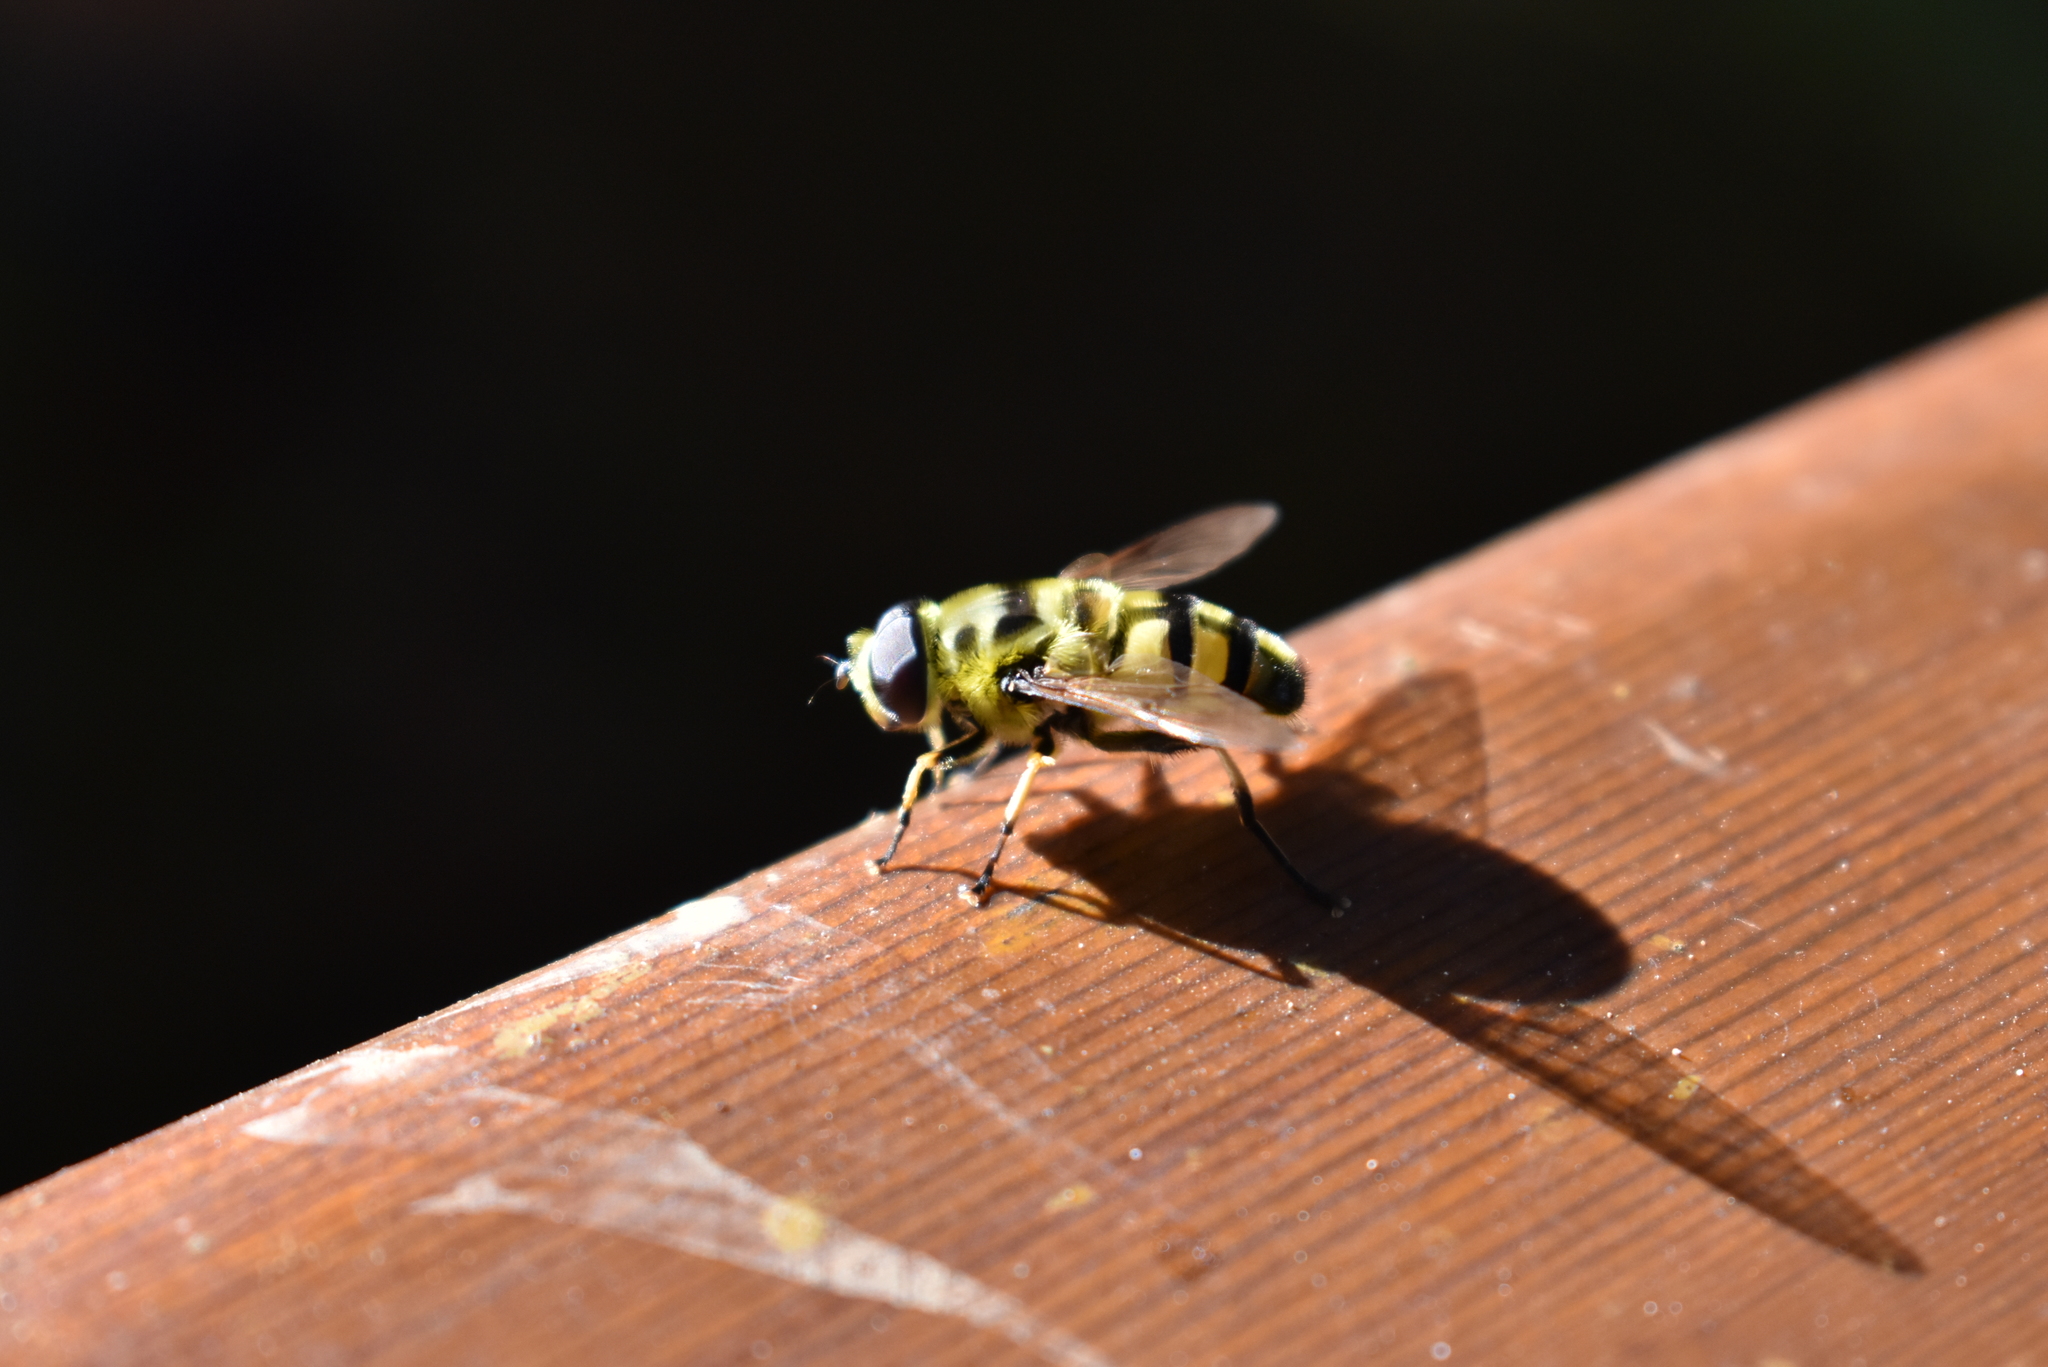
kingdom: Animalia
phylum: Arthropoda
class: Insecta
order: Diptera
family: Syrphidae
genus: Myathropa
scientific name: Myathropa florea
